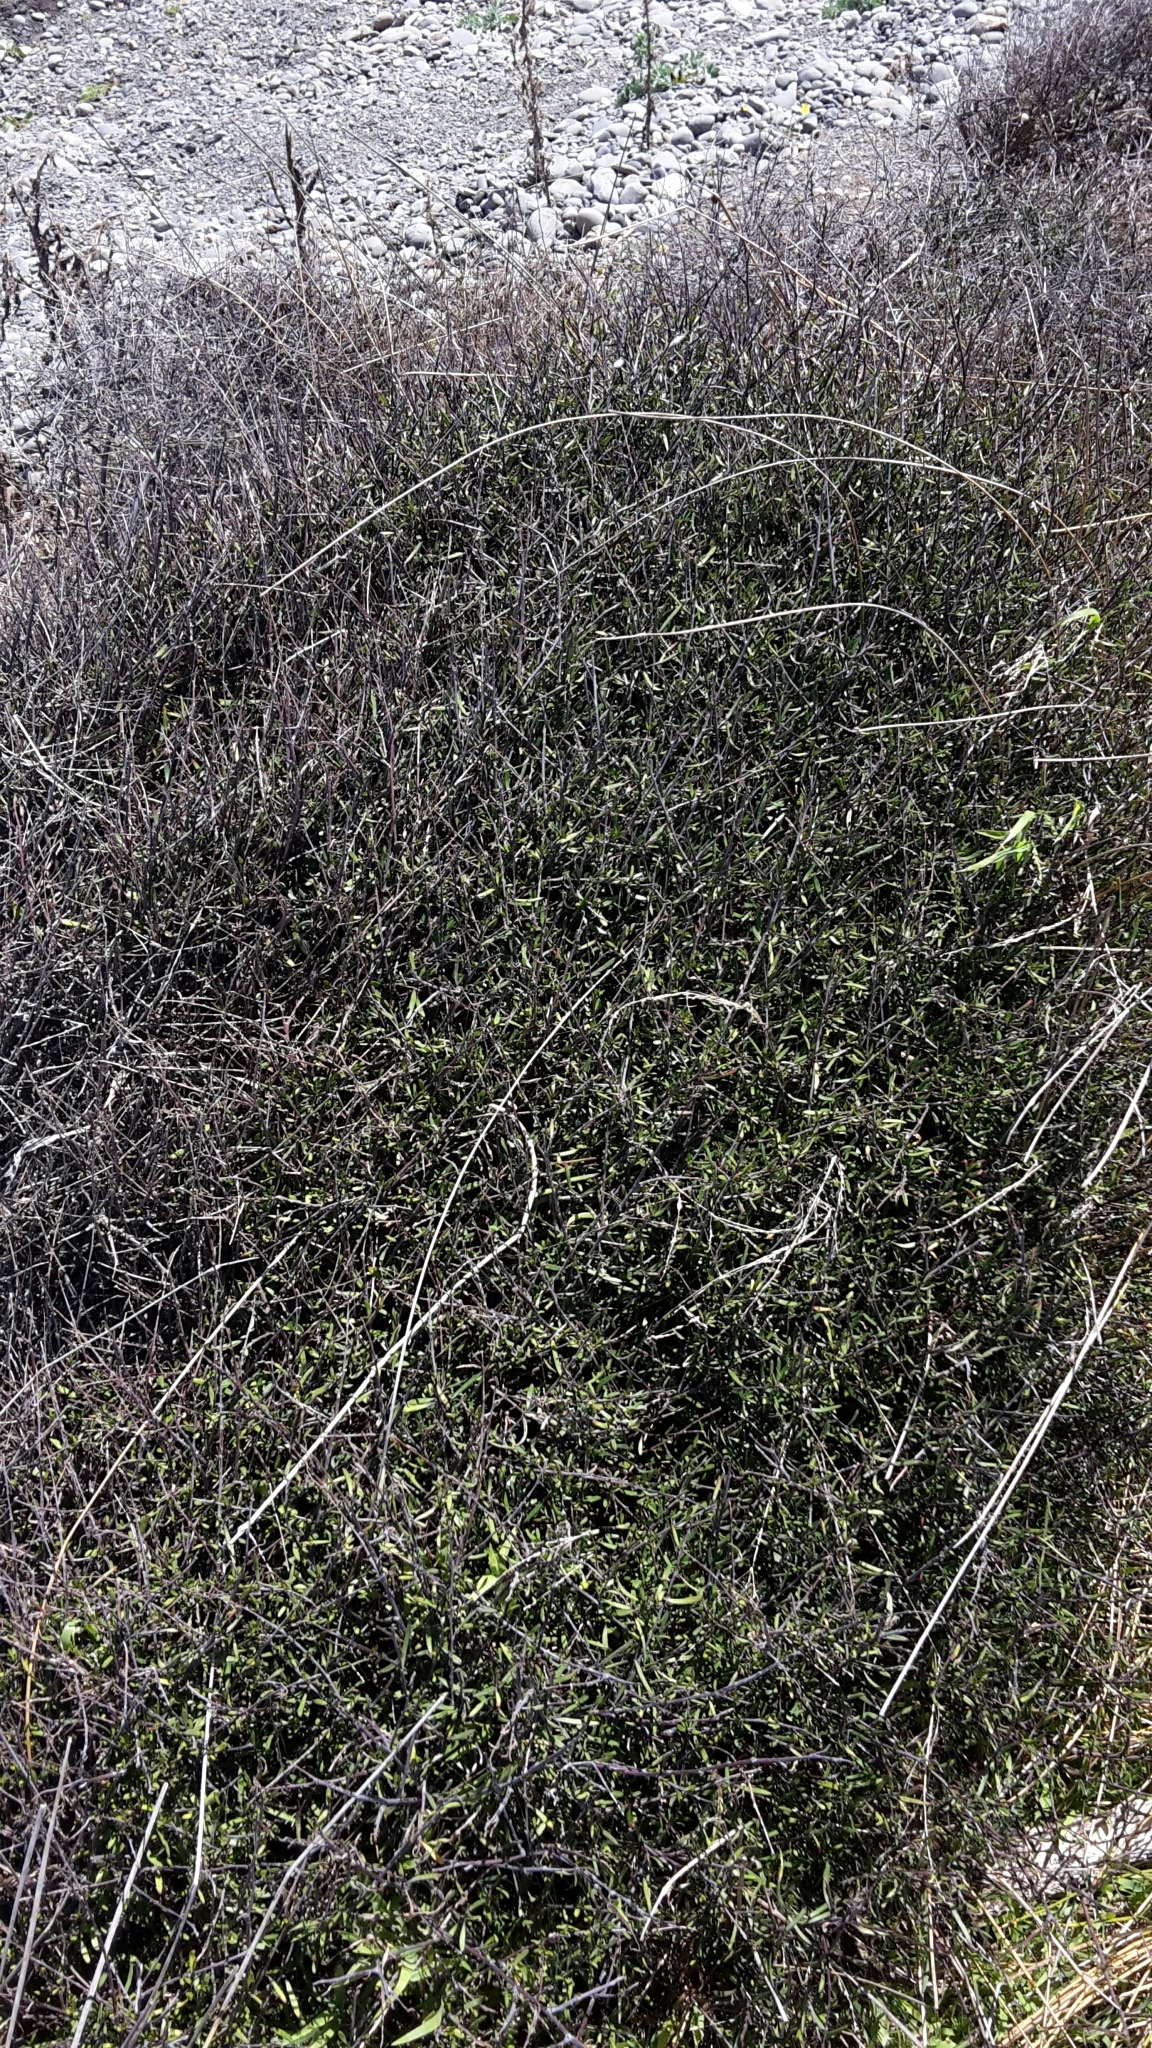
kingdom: Plantae
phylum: Tracheophyta
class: Magnoliopsida
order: Malvales
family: Malvaceae
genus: Plagianthus
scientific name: Plagianthus divaricatus
